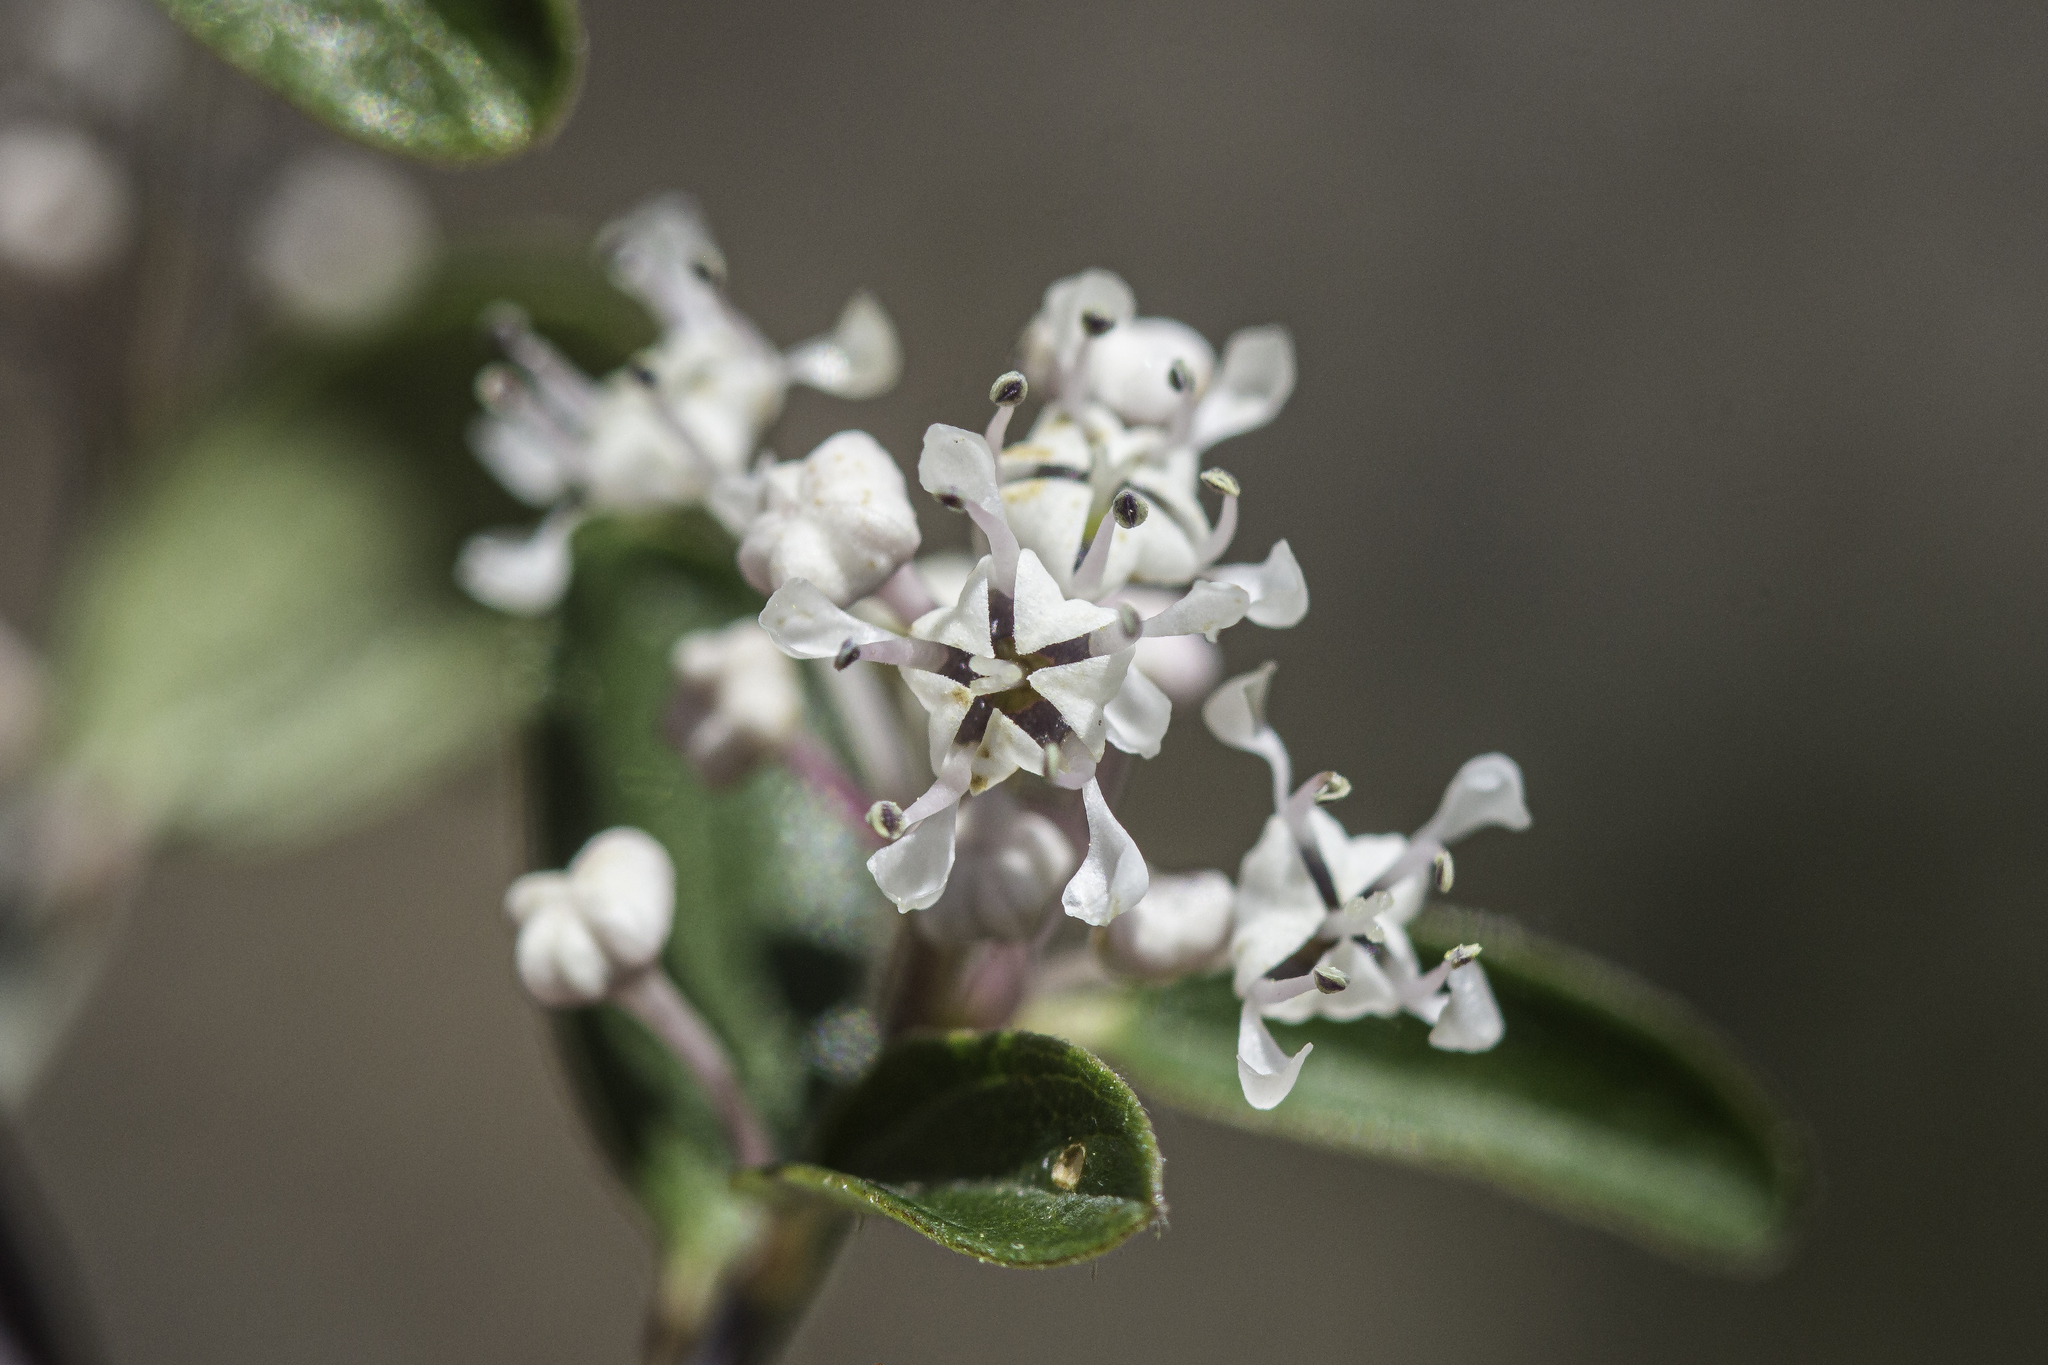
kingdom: Plantae
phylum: Tracheophyta
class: Magnoliopsida
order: Rosales
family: Rhamnaceae
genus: Ceanothus
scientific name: Ceanothus fendleri
